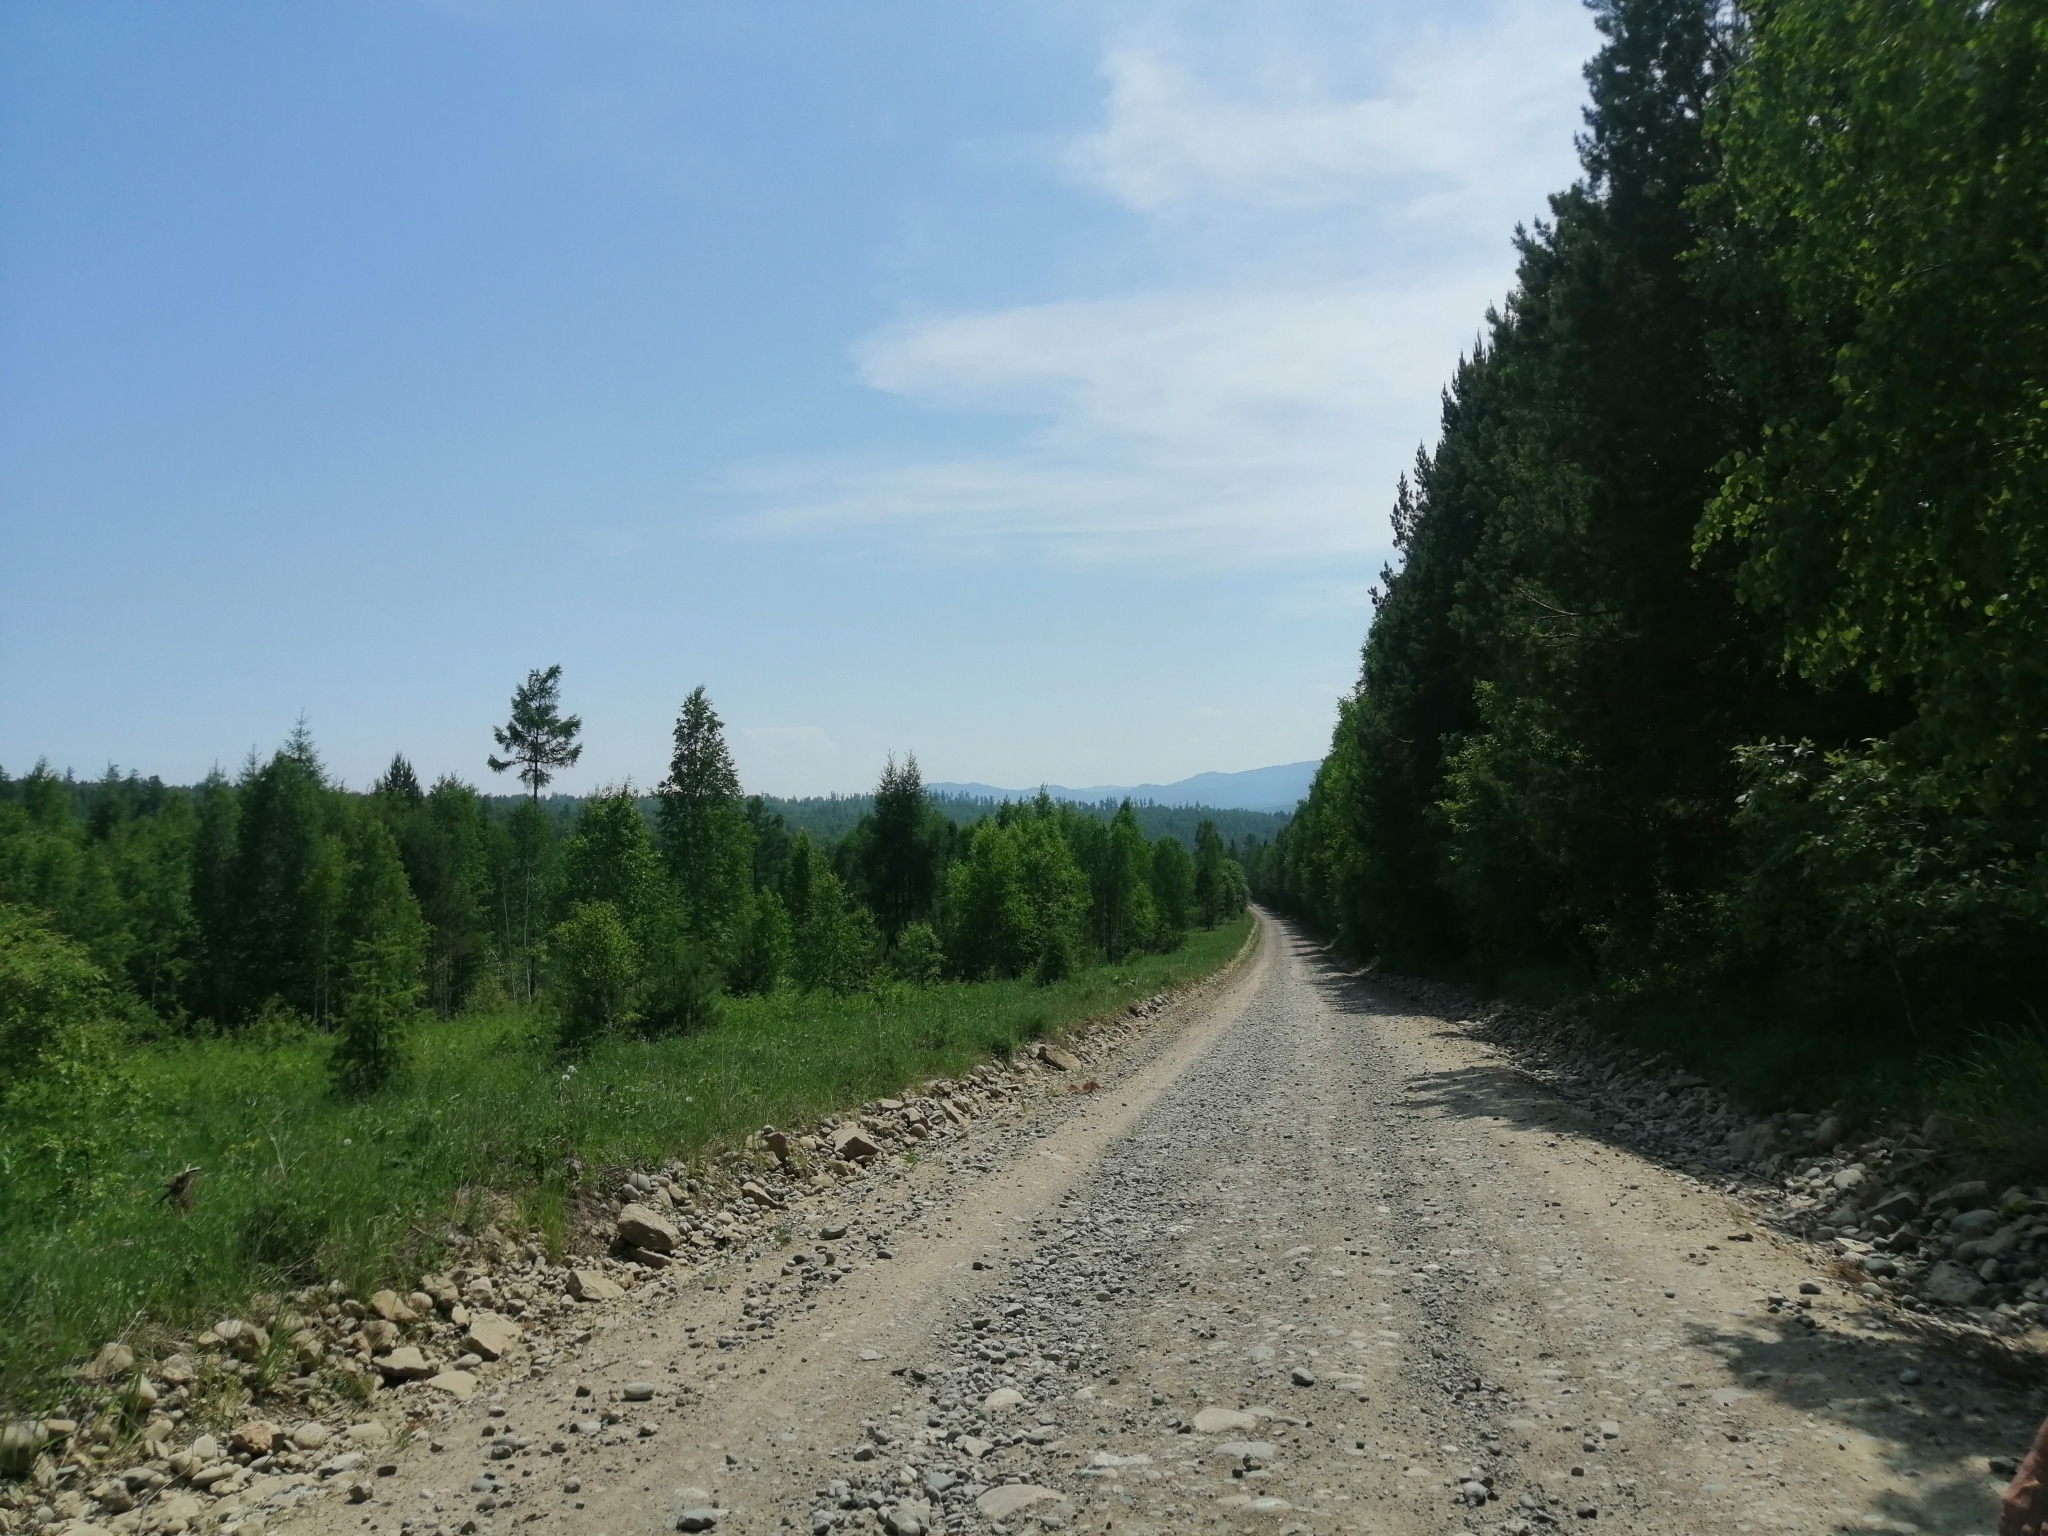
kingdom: Plantae
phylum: Tracheophyta
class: Pinopsida
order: Pinales
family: Pinaceae
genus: Pinus
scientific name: Pinus sylvestris
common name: Scots pine
